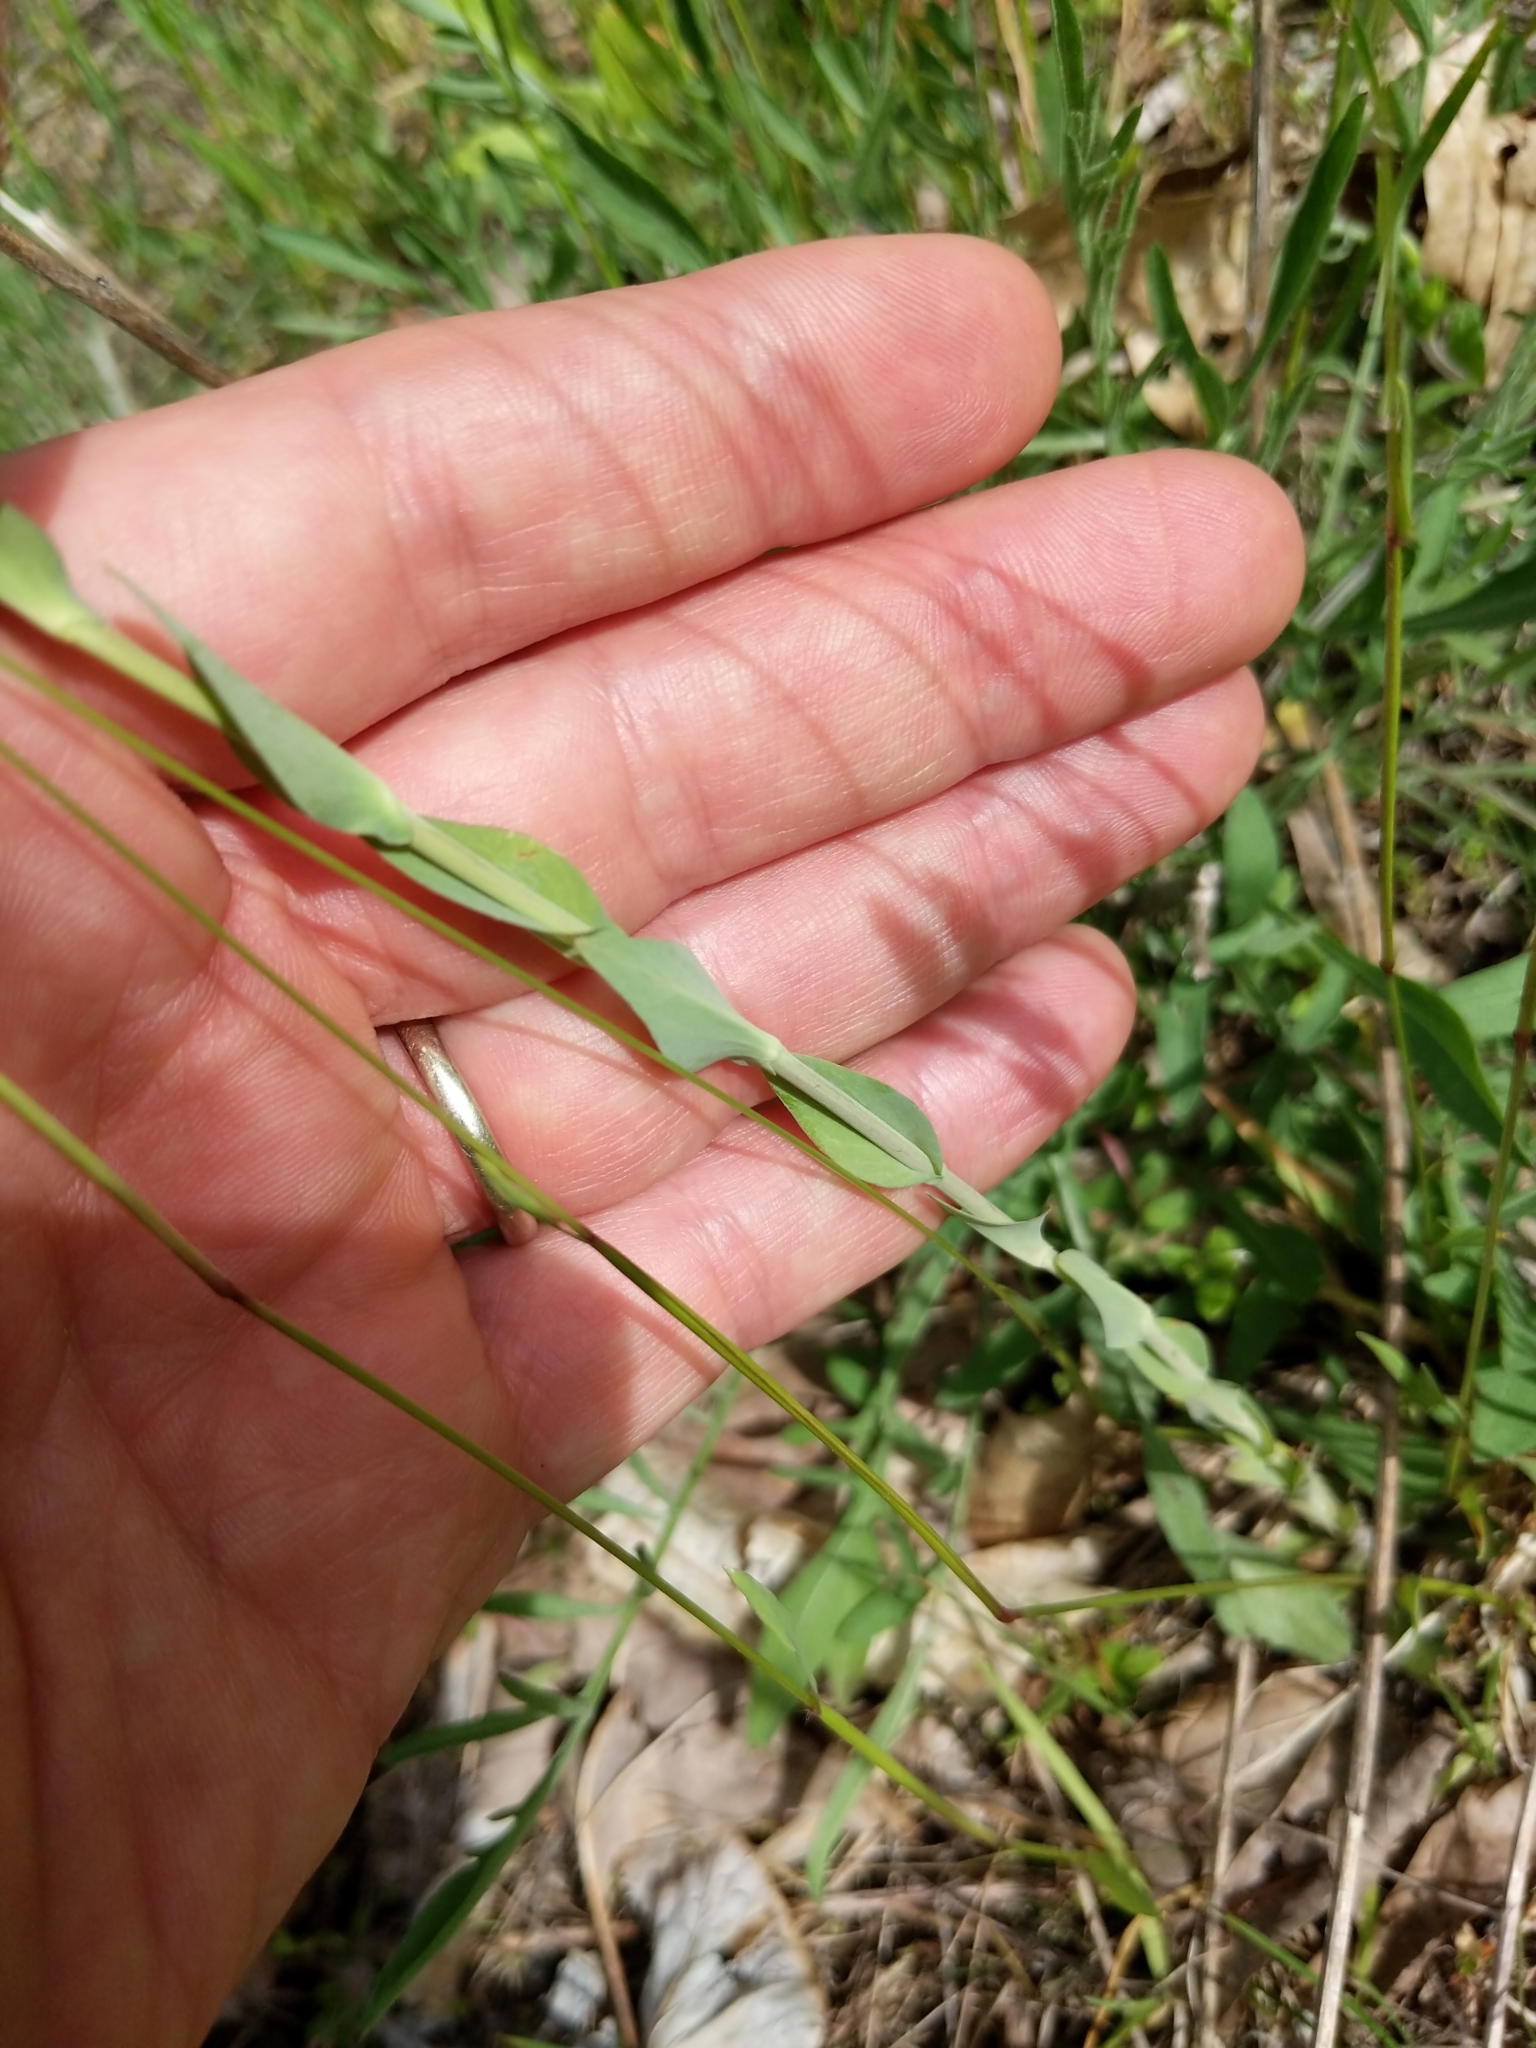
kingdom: Plantae
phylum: Tracheophyta
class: Magnoliopsida
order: Brassicales
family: Brassicaceae
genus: Turritis
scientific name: Turritis glabra
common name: Tower rockcress
